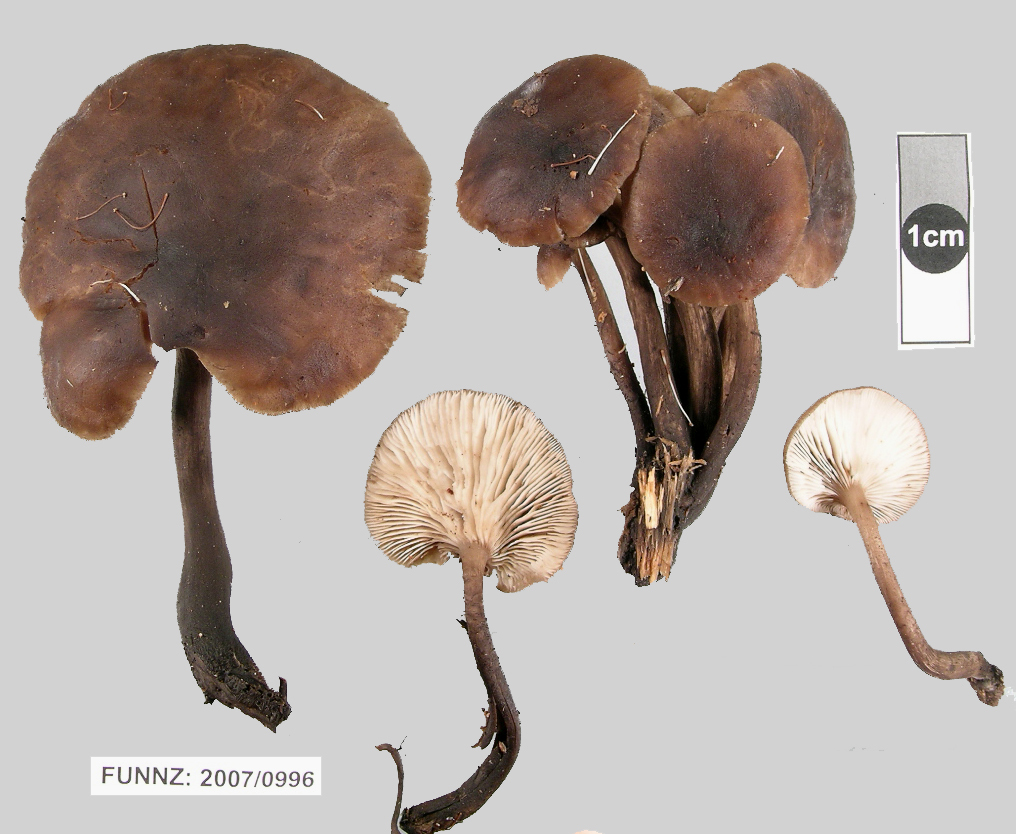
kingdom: Fungi
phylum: Basidiomycota
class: Agaricomycetes
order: Agaricales
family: Tricholomataceae
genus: Pleurella
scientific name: Pleurella ardesiaca
